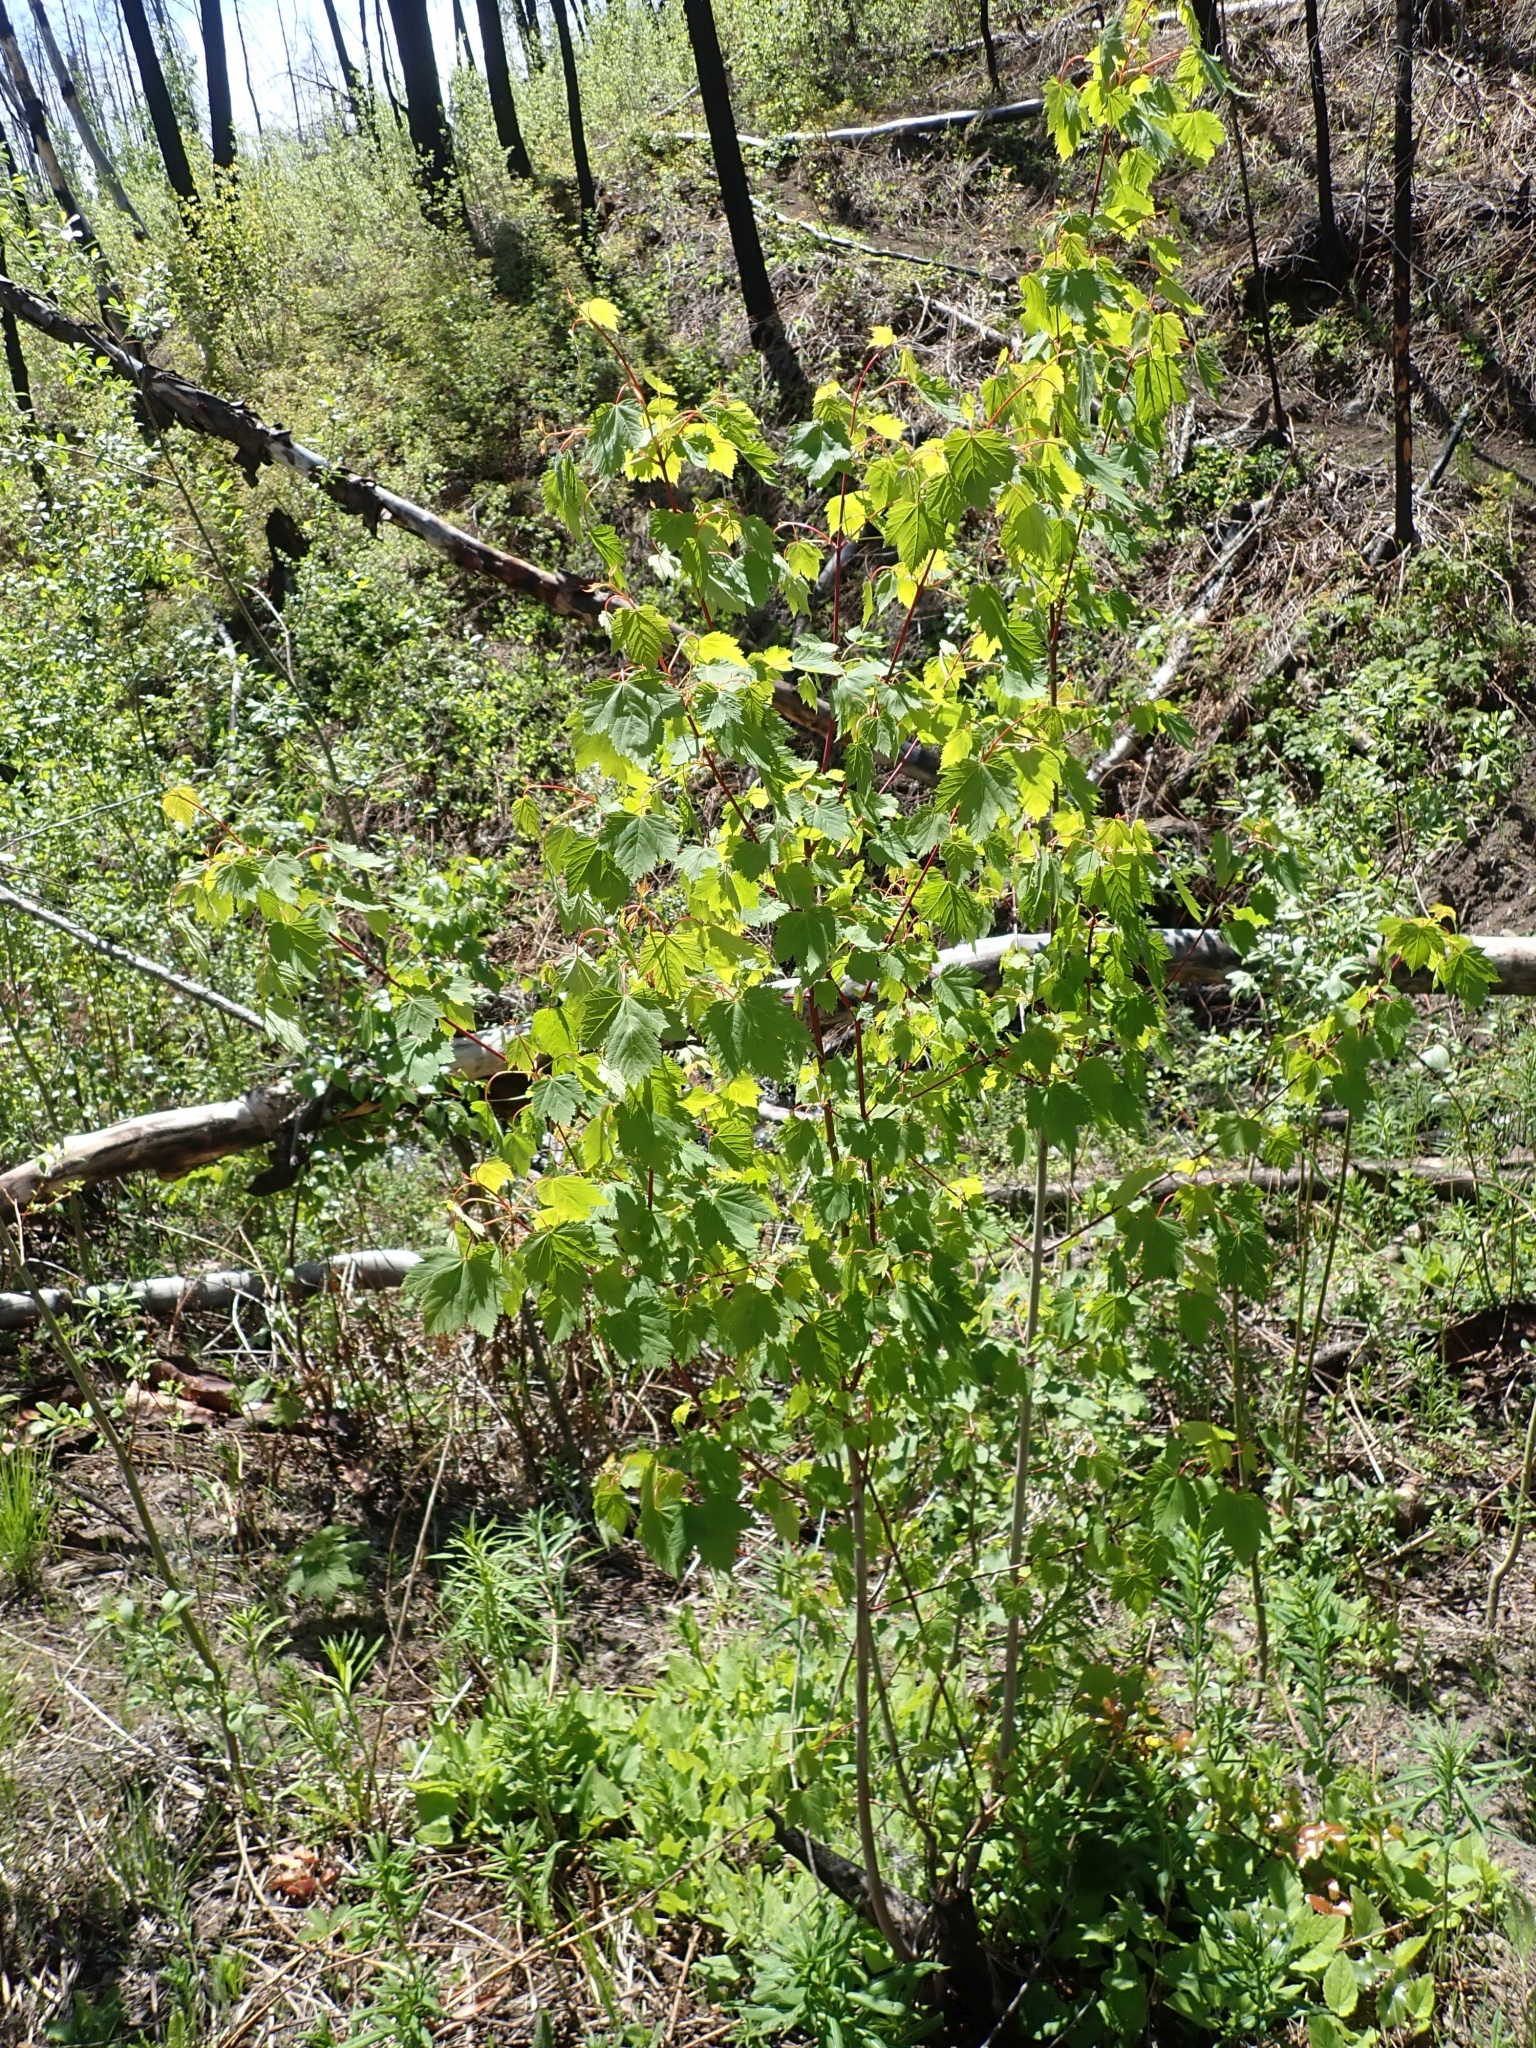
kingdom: Plantae
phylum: Tracheophyta
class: Magnoliopsida
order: Sapindales
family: Sapindaceae
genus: Acer
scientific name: Acer glabrum
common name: Rocky mountain maple
